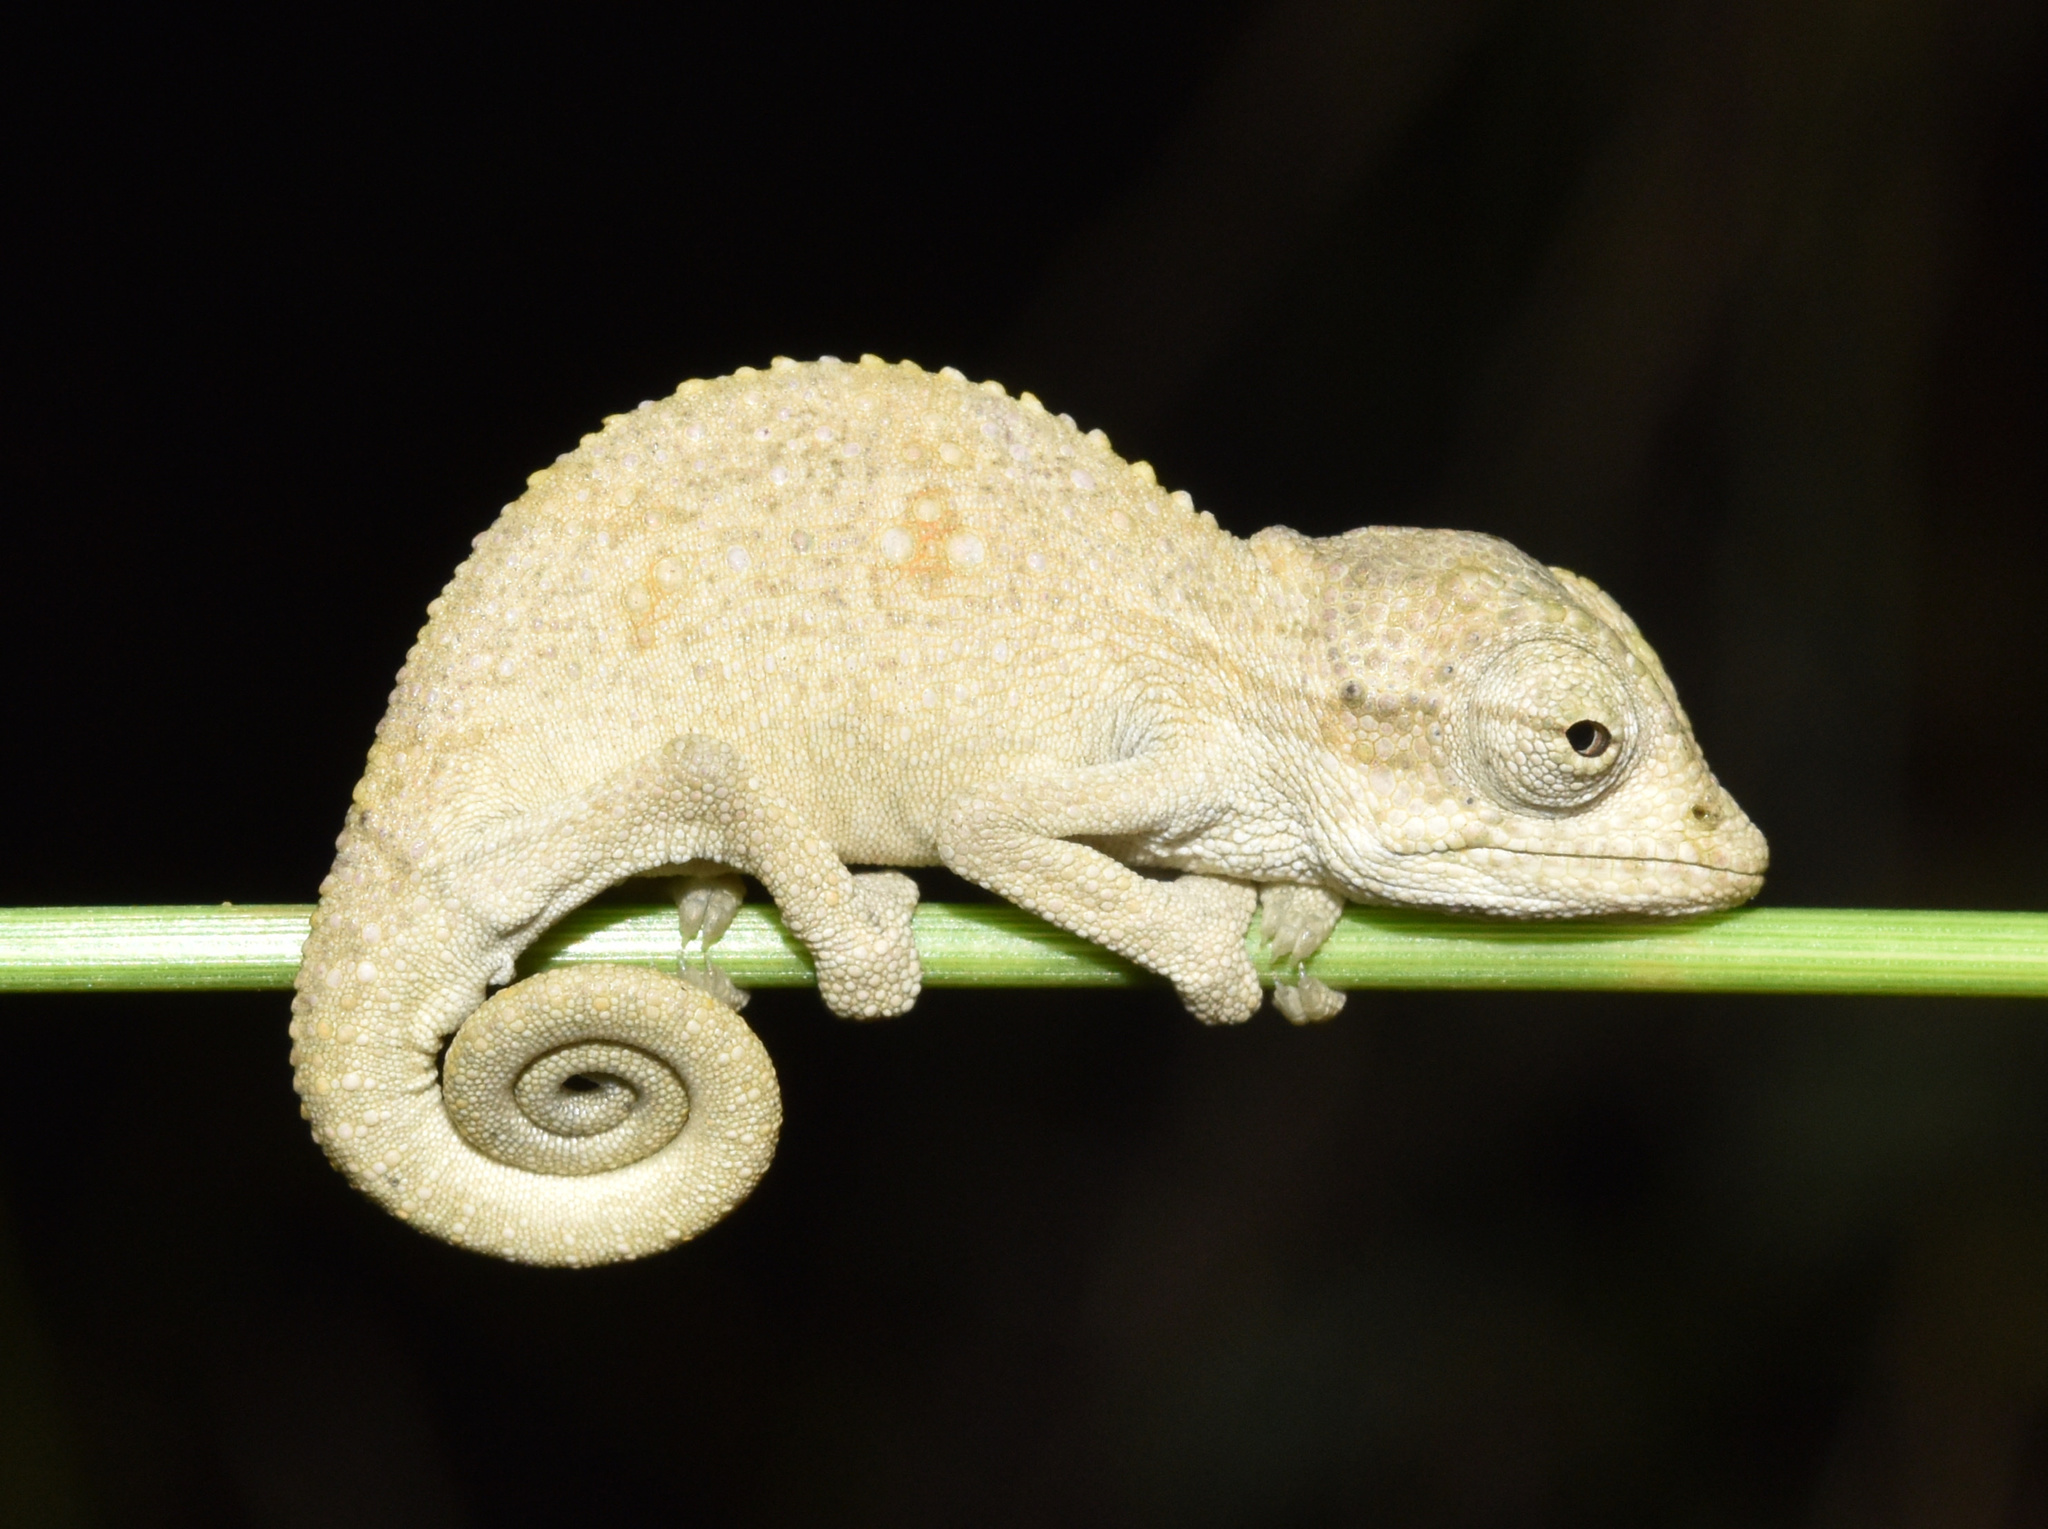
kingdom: Animalia
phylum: Chordata
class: Squamata
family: Chamaeleonidae
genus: Bradypodion
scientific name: Bradypodion melanocephalum
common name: Black-headed dwarf chameleon
